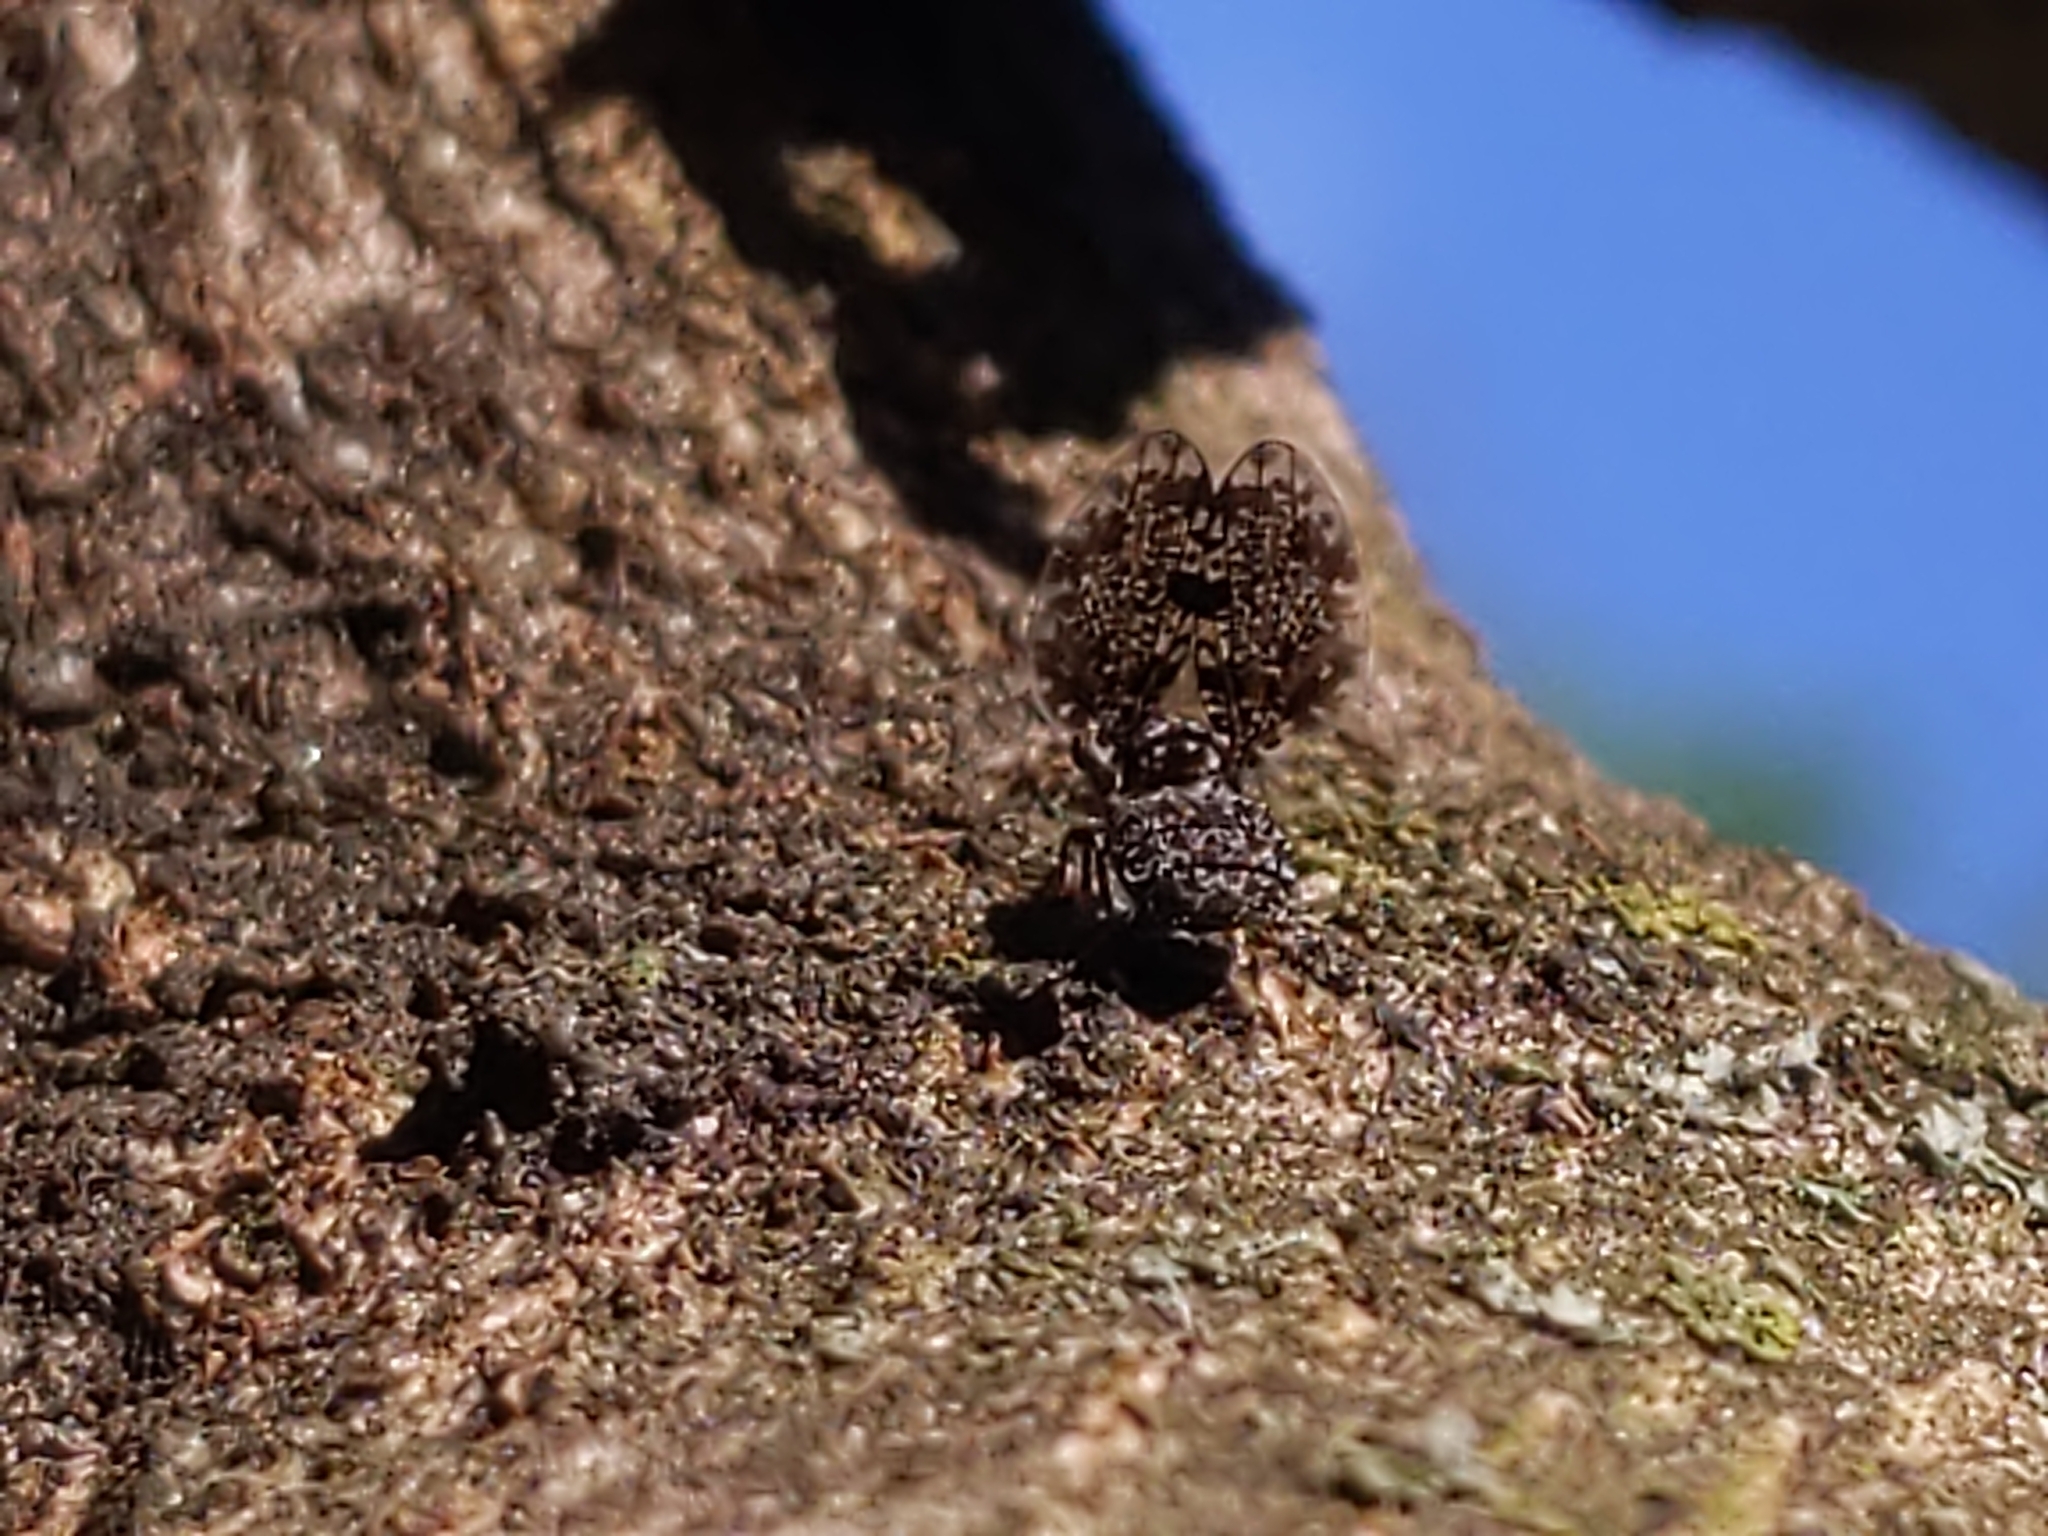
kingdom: Animalia
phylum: Arthropoda
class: Insecta
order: Diptera
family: Ulidiidae
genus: Callopistromyia
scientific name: Callopistromyia annulipes
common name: Peacock fly
